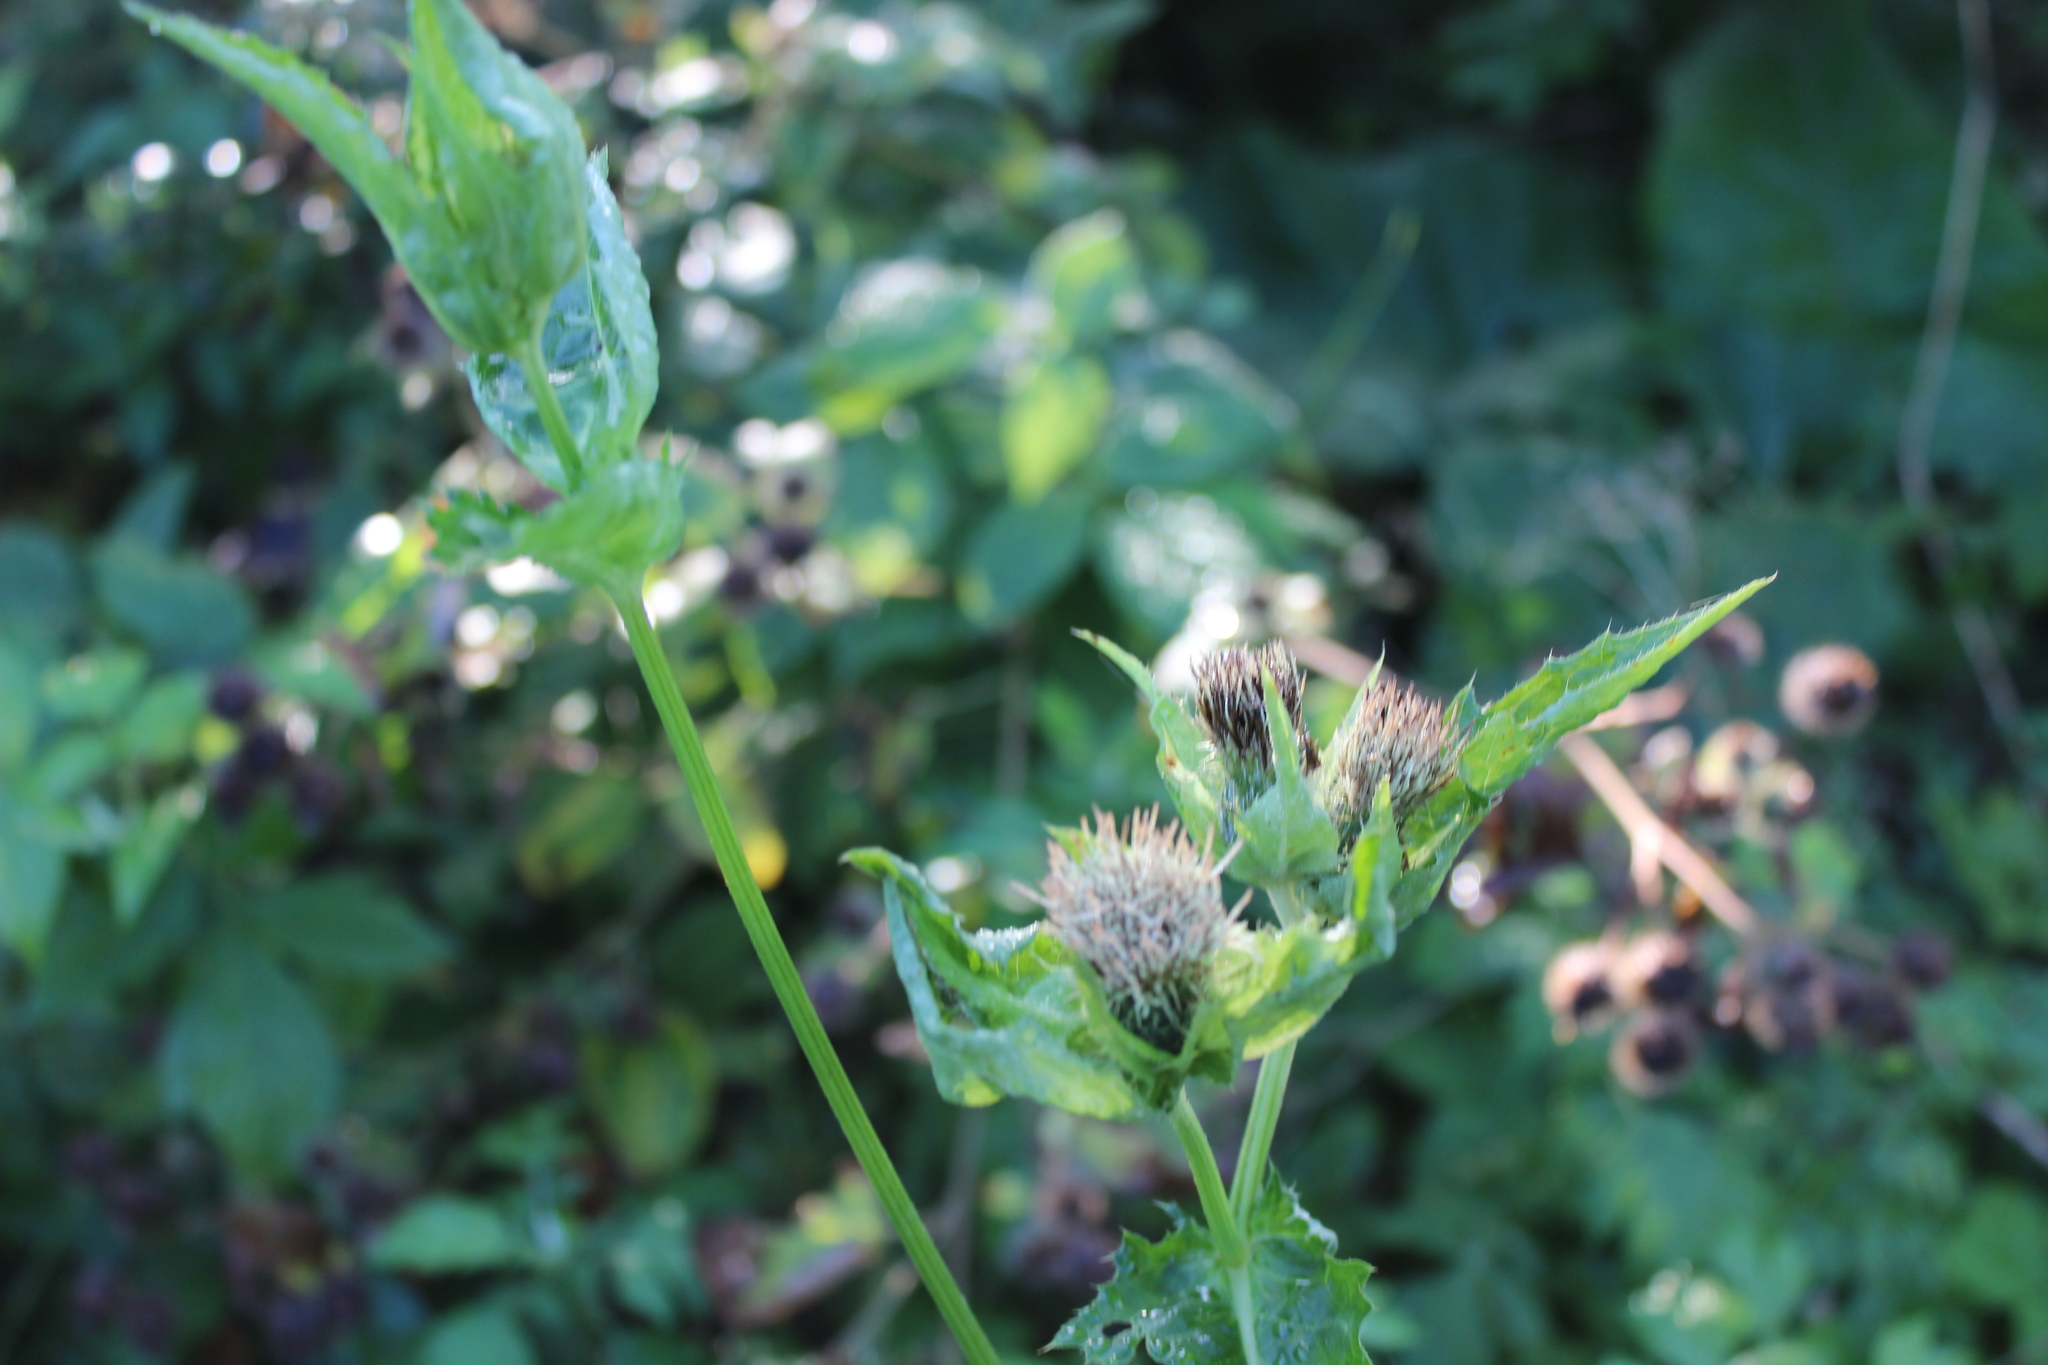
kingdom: Plantae
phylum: Tracheophyta
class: Magnoliopsida
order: Asterales
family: Asteraceae
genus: Cirsium
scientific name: Cirsium oleraceum
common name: Cabbage thistle
